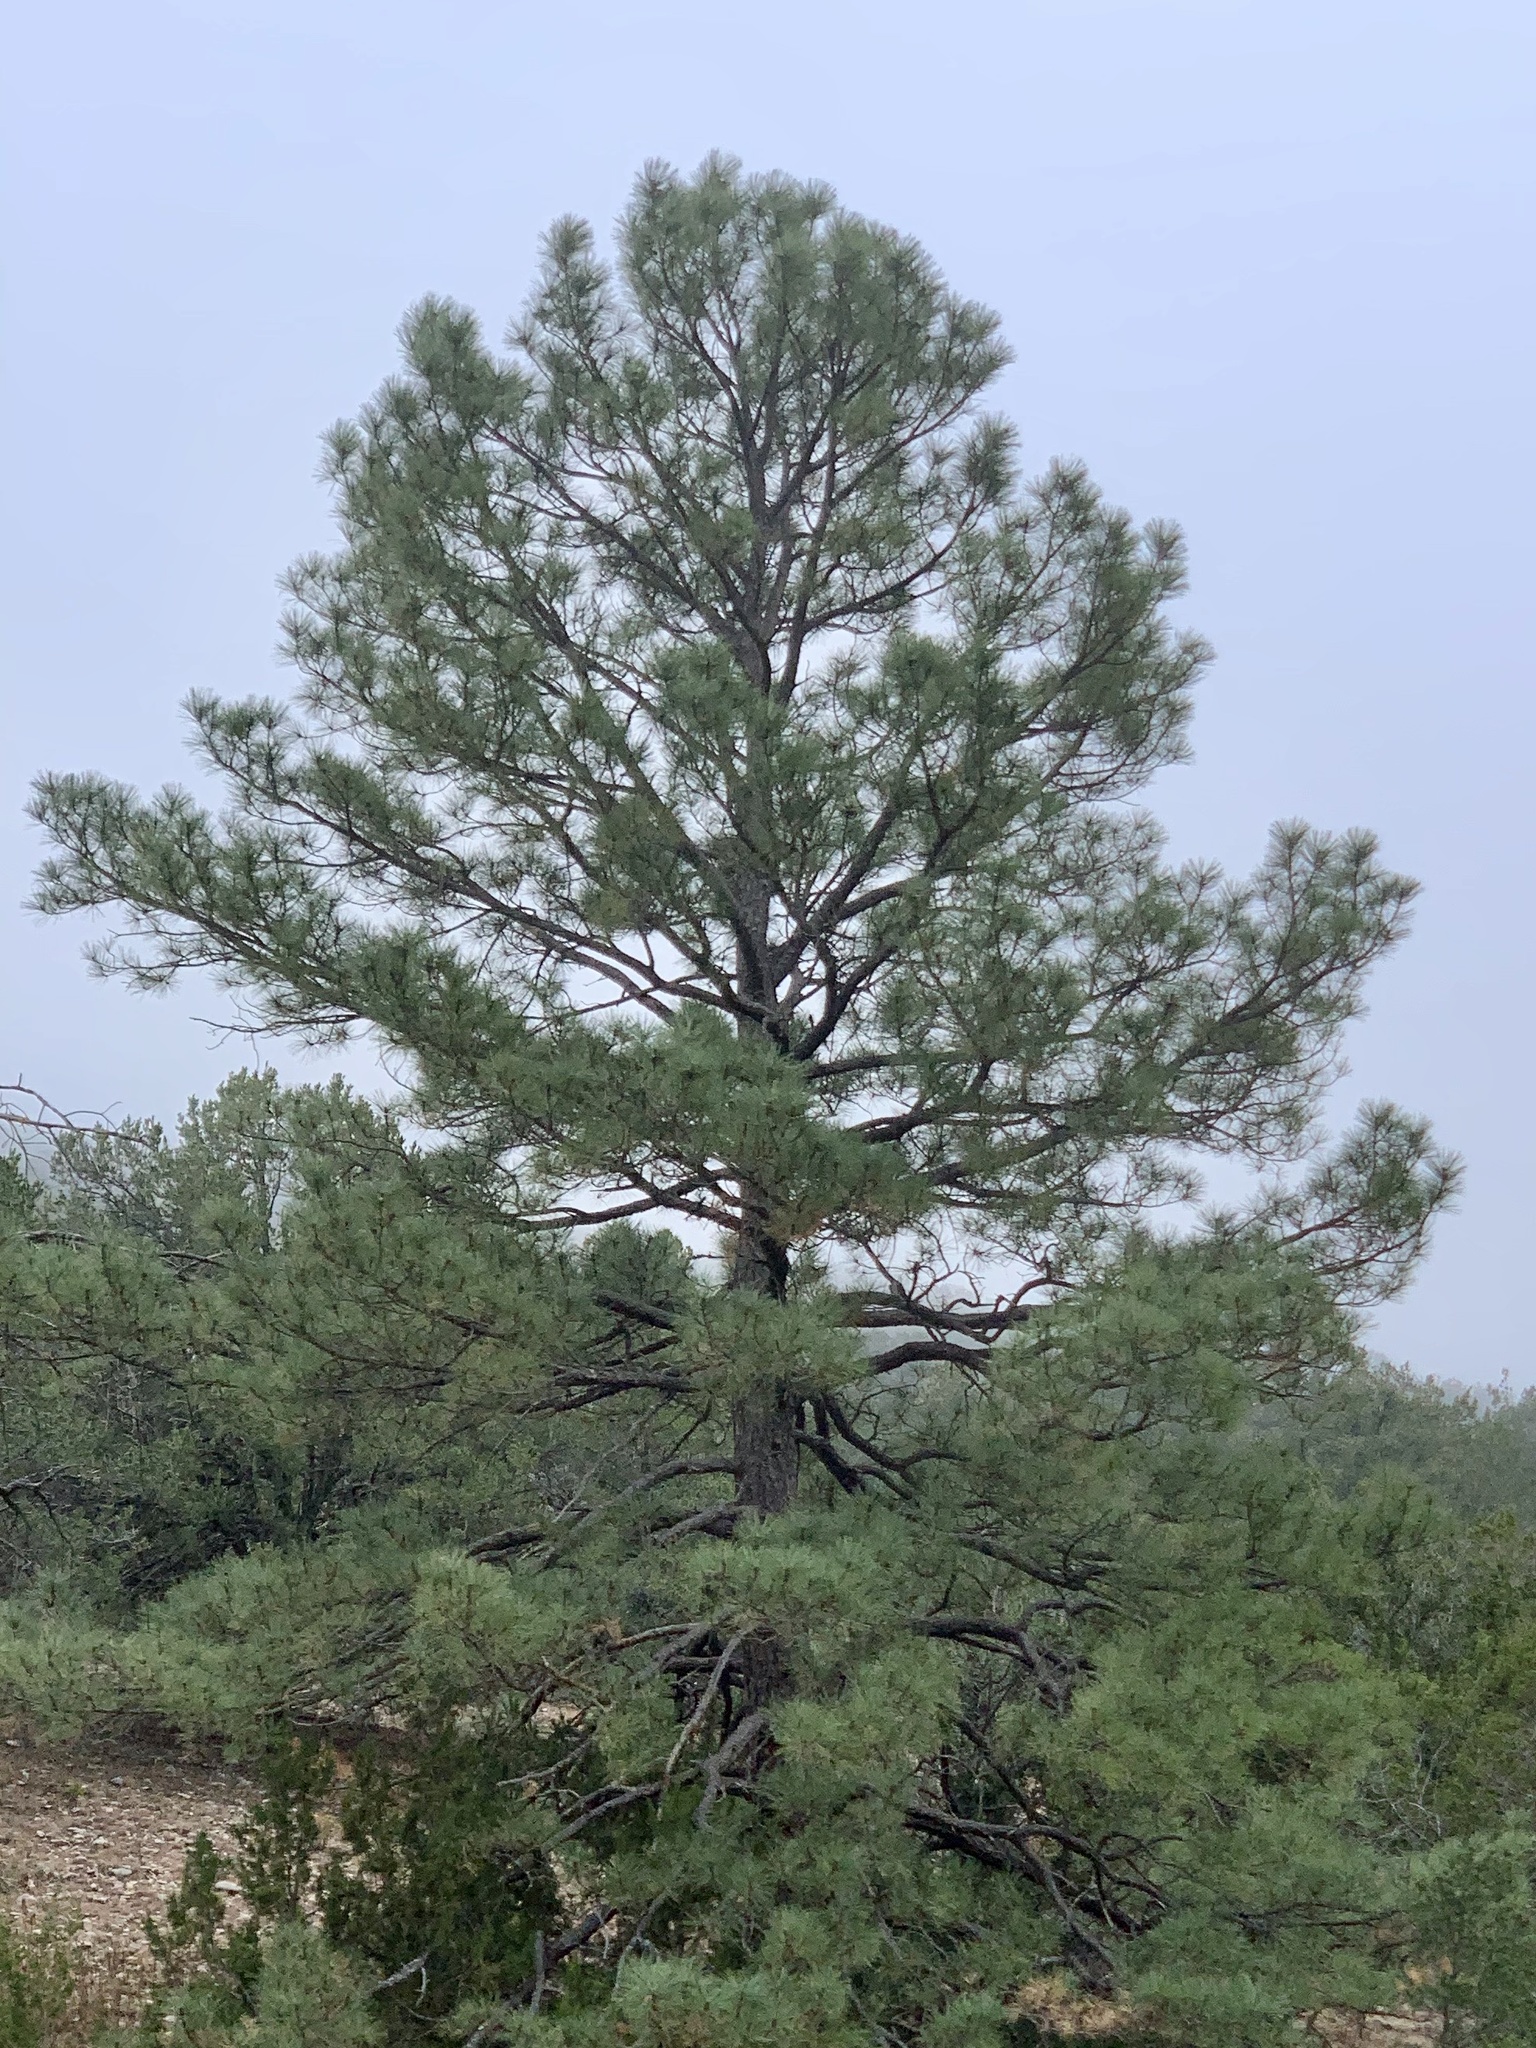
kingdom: Plantae
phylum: Tracheophyta
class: Pinopsida
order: Pinales
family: Pinaceae
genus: Pinus
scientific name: Pinus ponderosa
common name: Western yellow-pine
